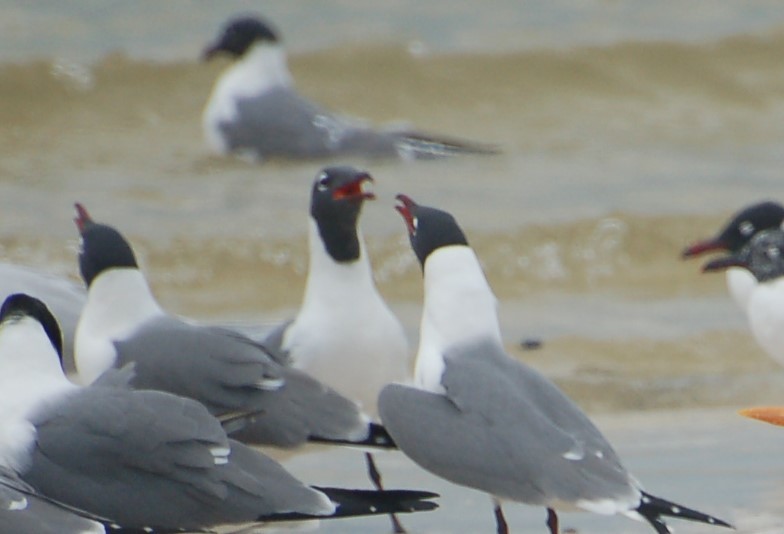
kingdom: Animalia
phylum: Chordata
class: Aves
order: Charadriiformes
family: Laridae
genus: Leucophaeus
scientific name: Leucophaeus atricilla
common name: Laughing gull
